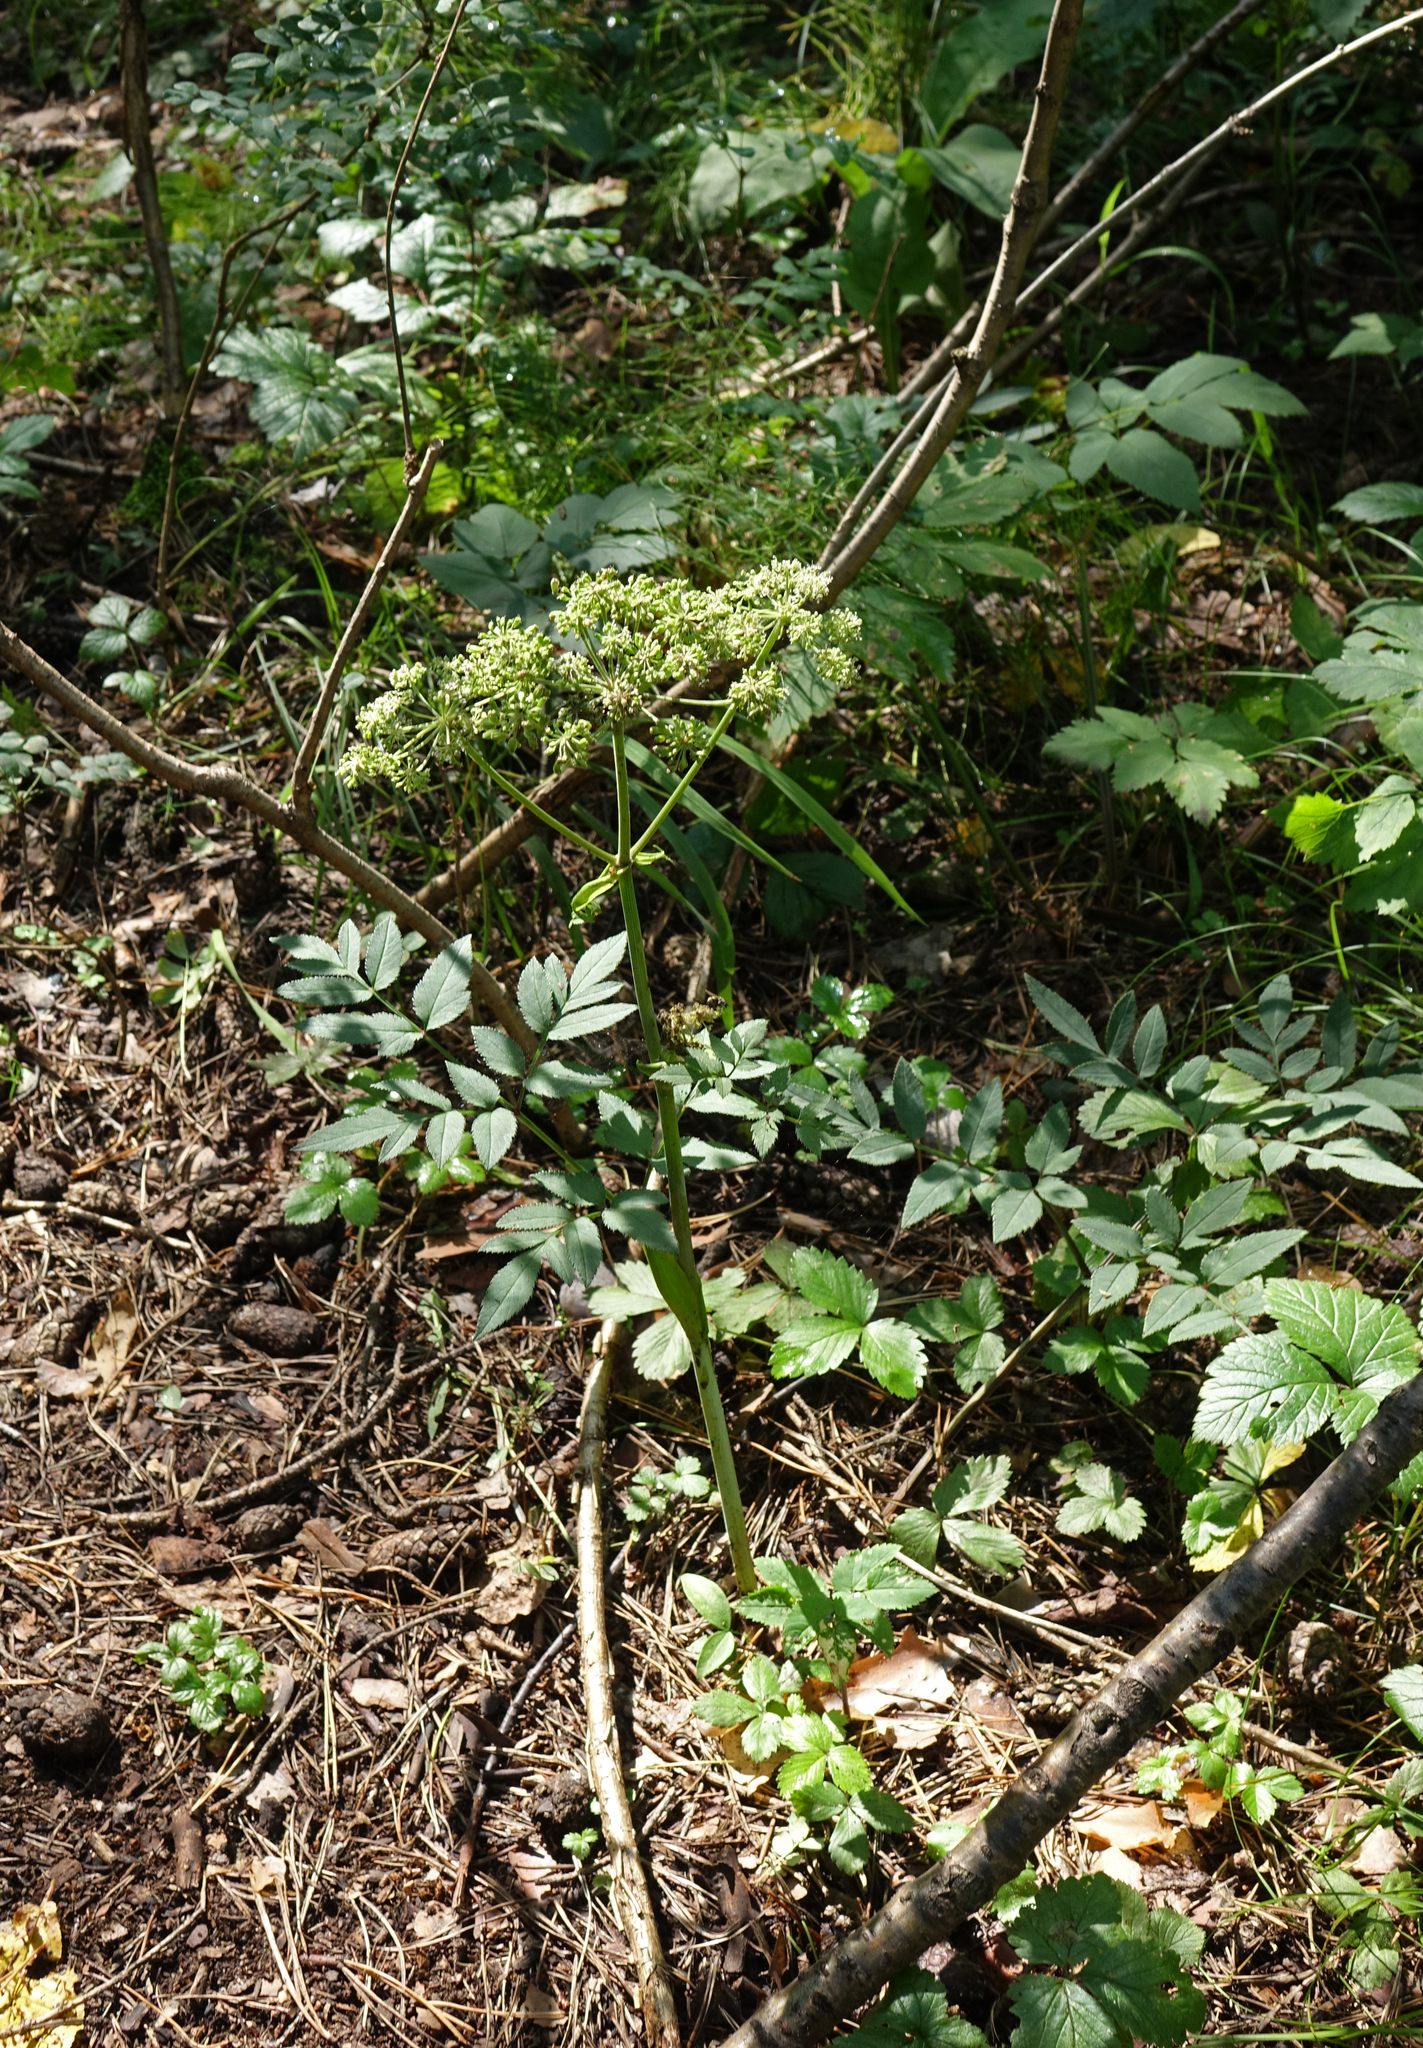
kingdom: Plantae
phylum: Tracheophyta
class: Magnoliopsida
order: Apiales
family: Apiaceae
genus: Angelica
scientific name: Angelica sylvestris
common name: Wild angelica
